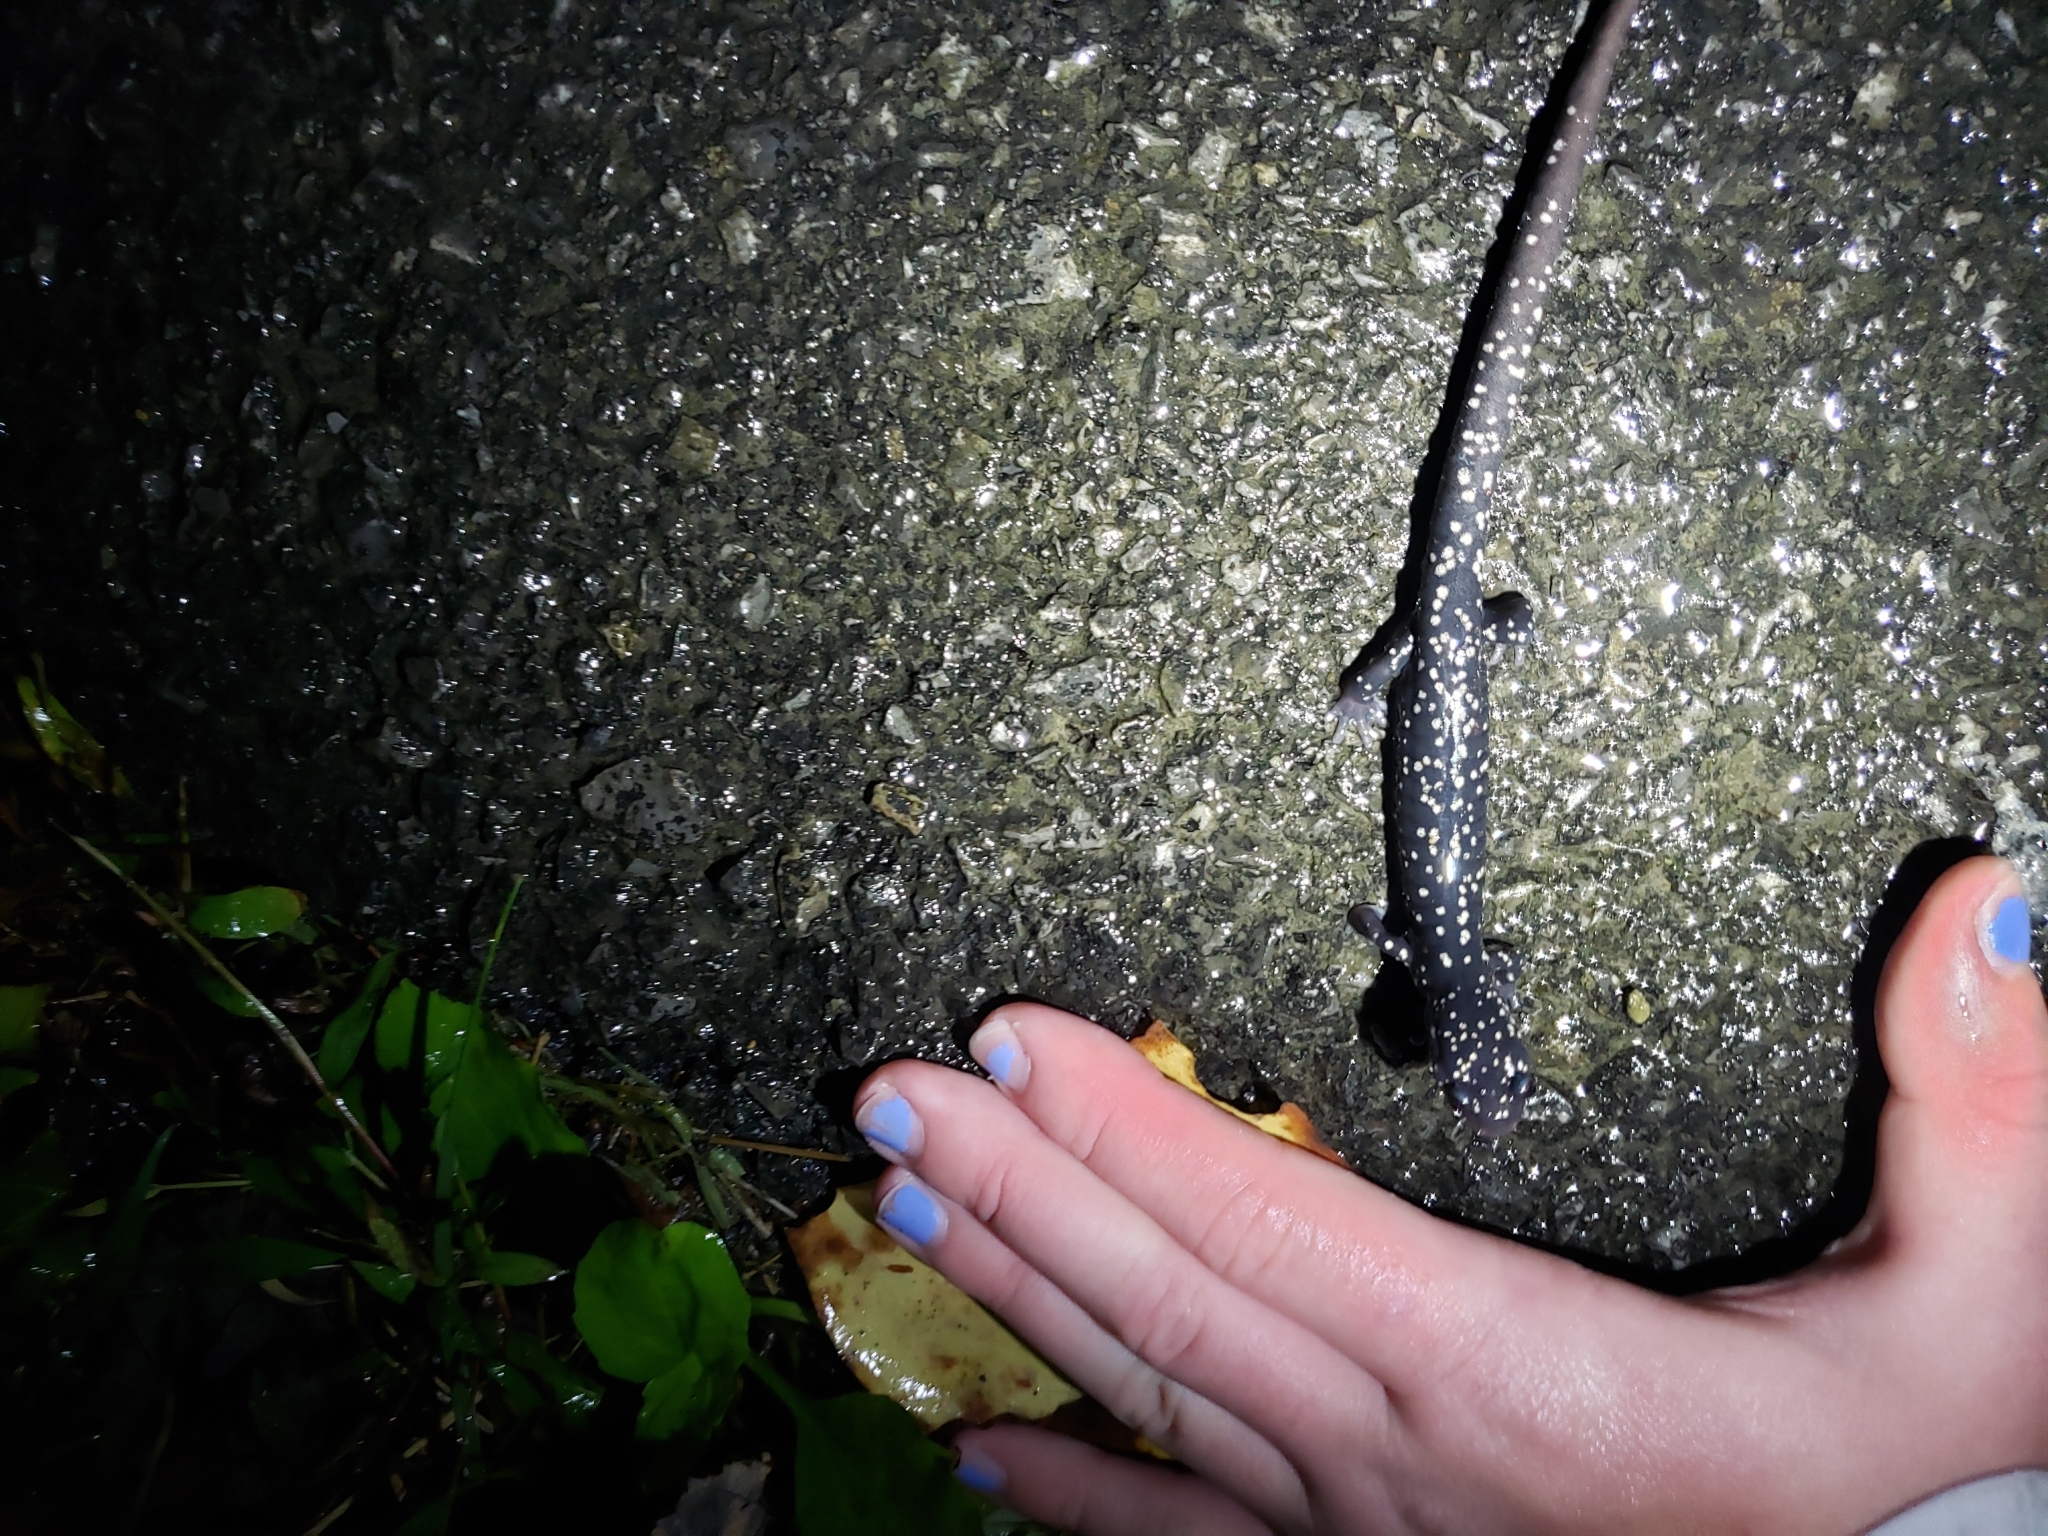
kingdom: Animalia
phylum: Chordata
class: Amphibia
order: Caudata
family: Plethodontidae
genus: Plethodon
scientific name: Plethodon glutinosus
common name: Northern slimy salamander
